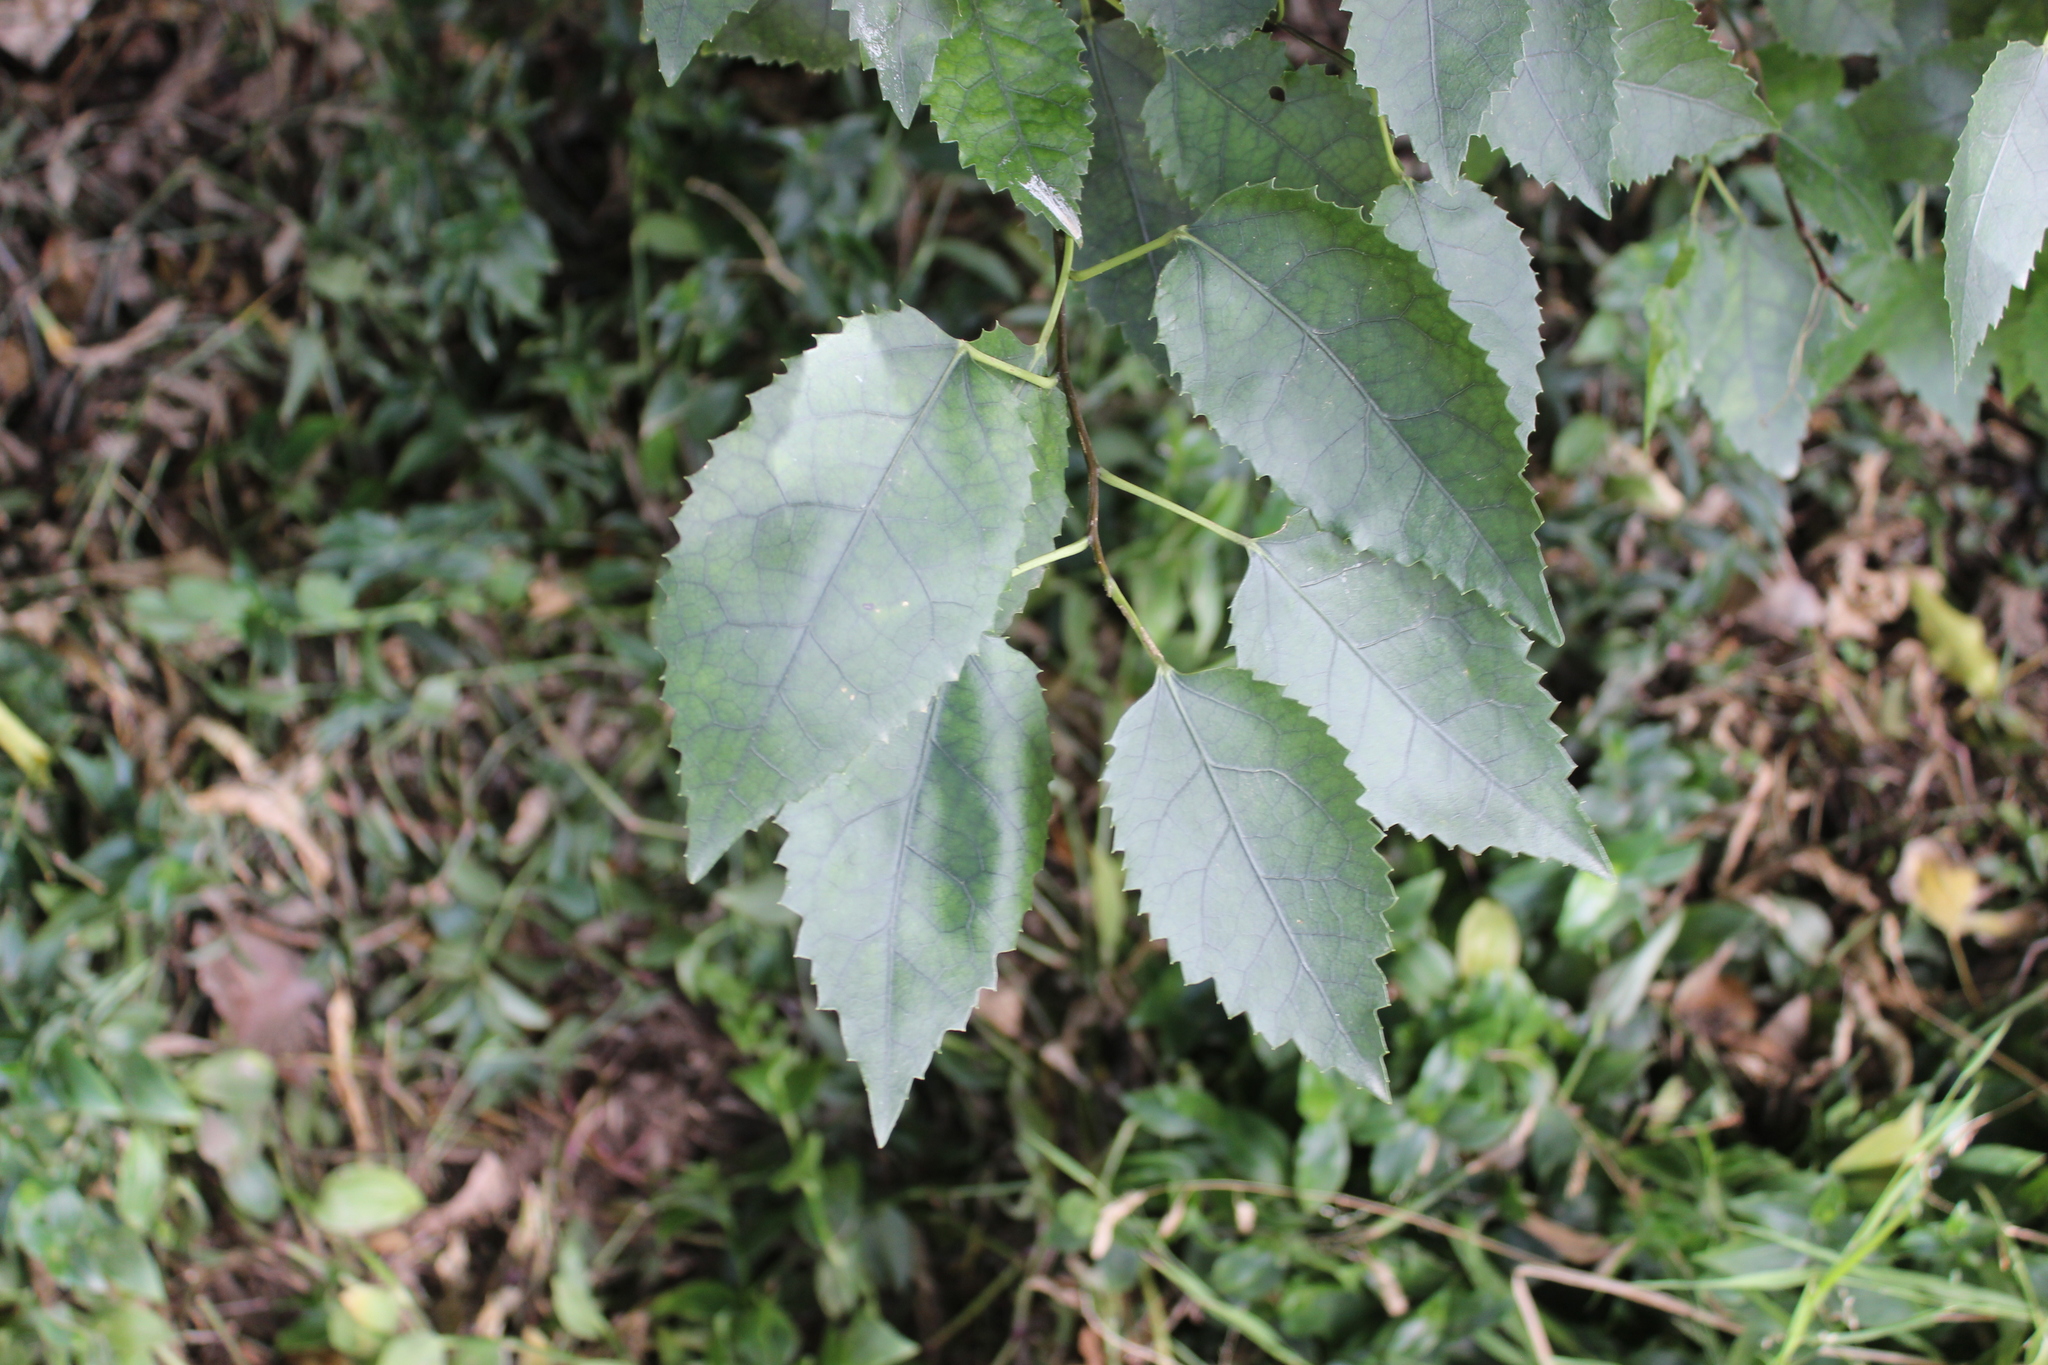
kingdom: Plantae
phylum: Tracheophyta
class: Magnoliopsida
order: Malvales
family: Malvaceae
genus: Hoheria
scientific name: Hoheria populnea
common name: Lacebark
